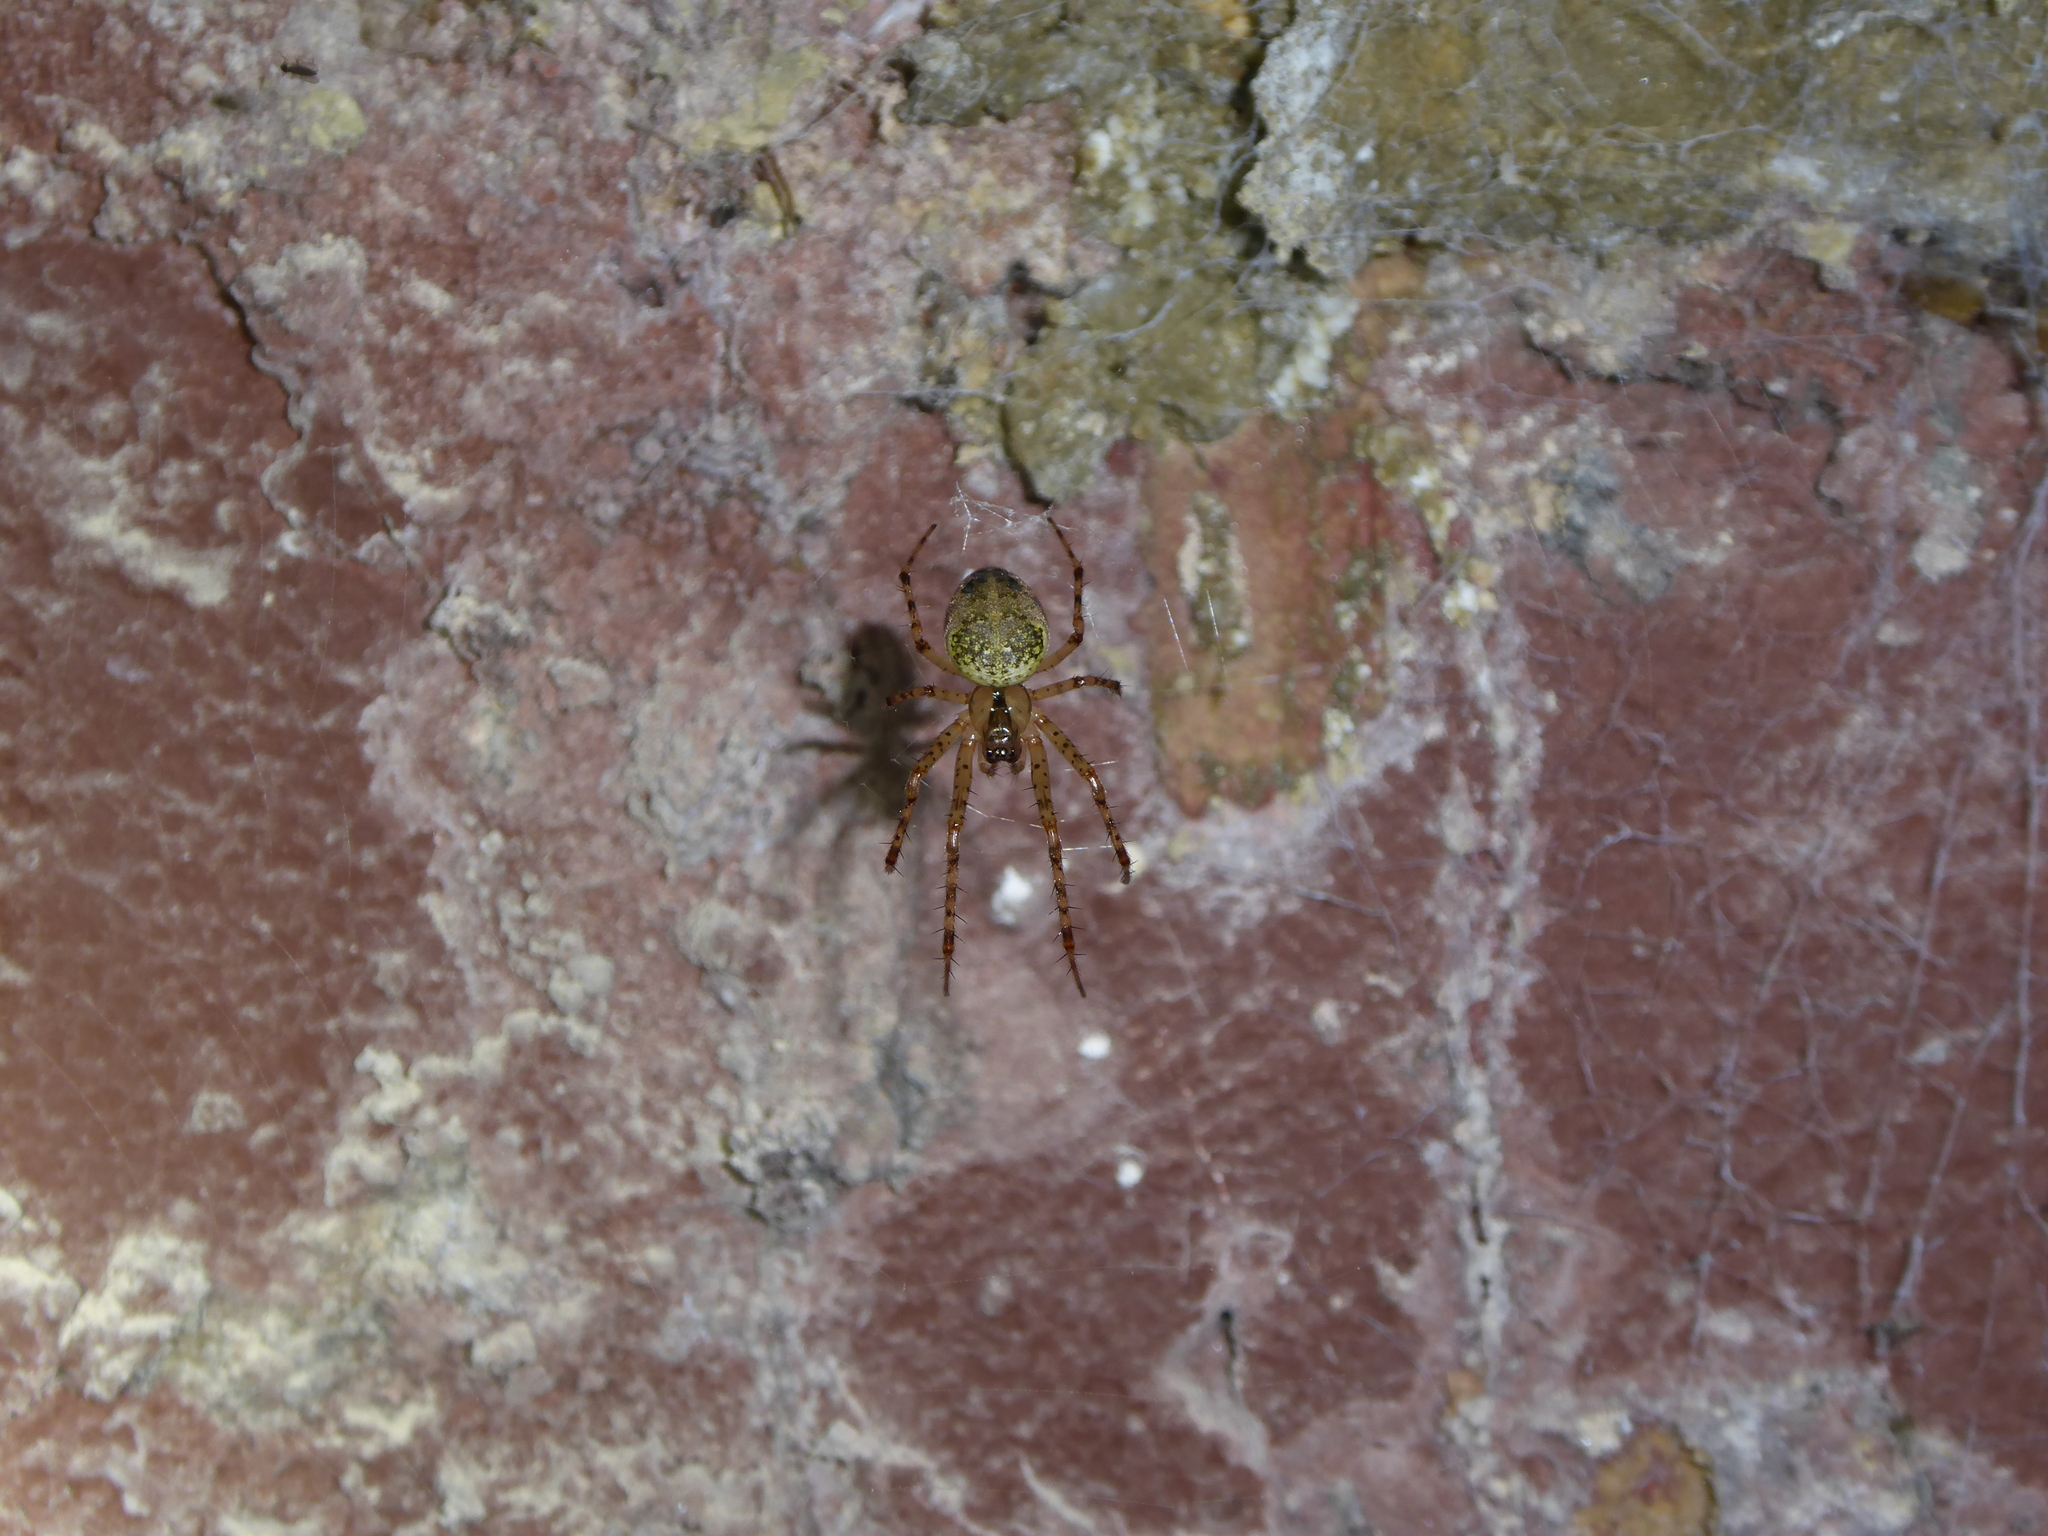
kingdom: Animalia
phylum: Arthropoda
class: Arachnida
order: Araneae
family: Tetragnathidae
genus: Metellina
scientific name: Metellina merianae
